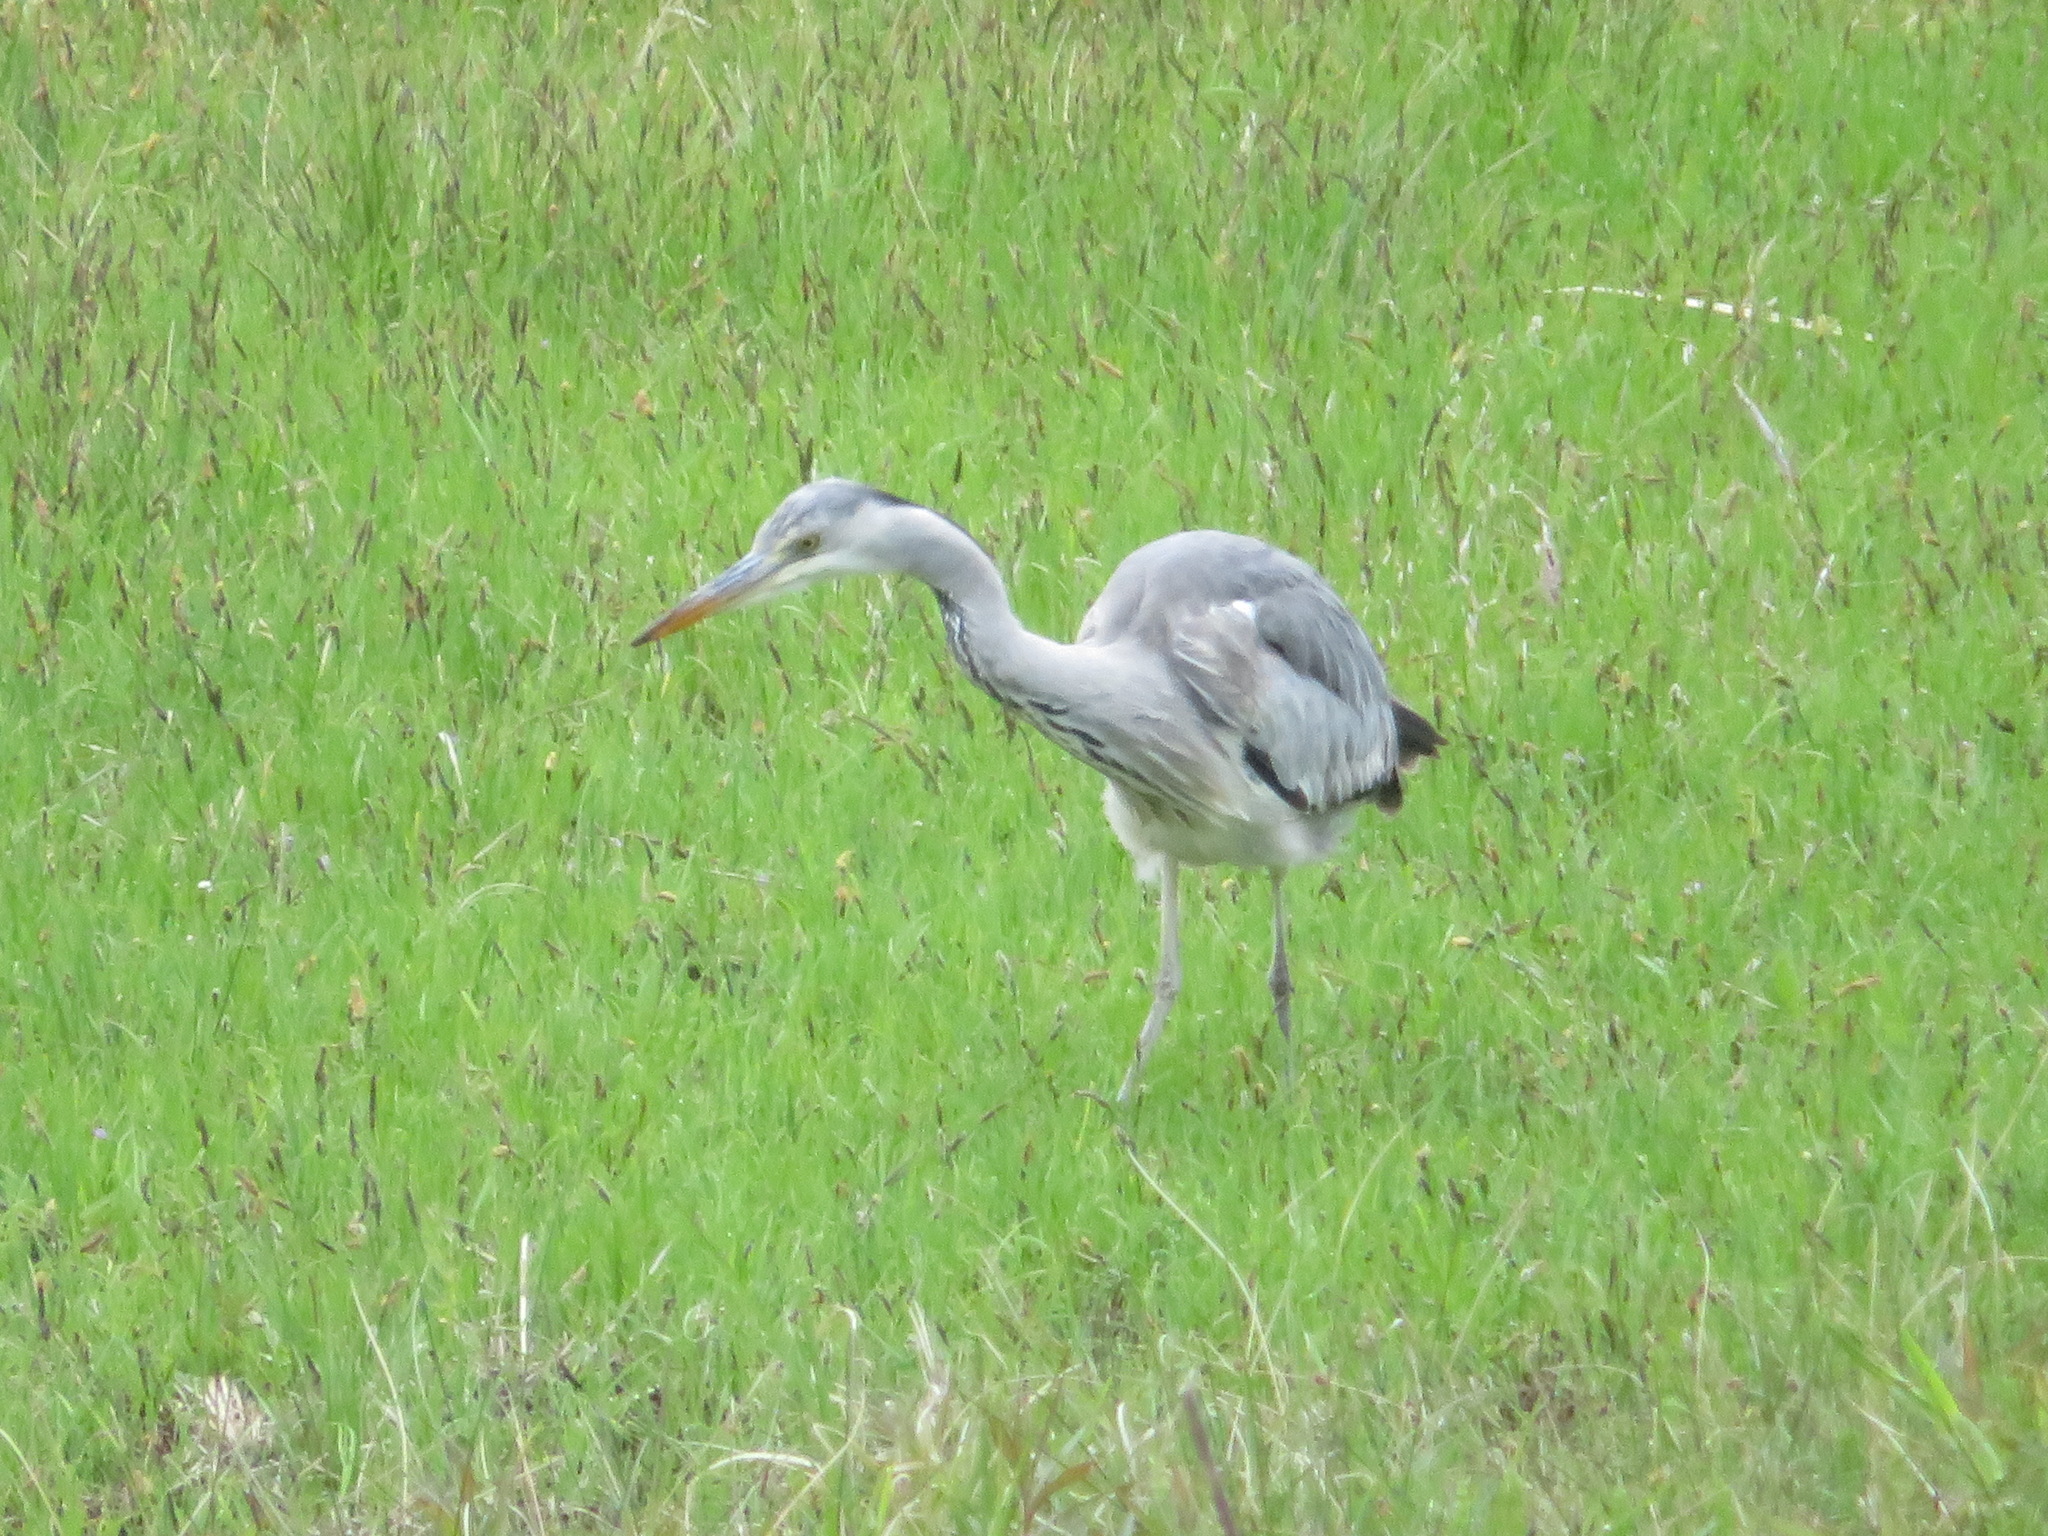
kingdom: Animalia
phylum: Chordata
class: Aves
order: Pelecaniformes
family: Ardeidae
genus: Ardea
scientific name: Ardea cinerea
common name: Grey heron
